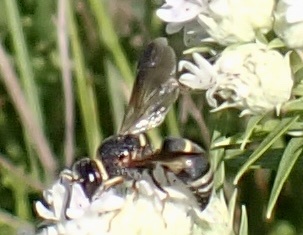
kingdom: Animalia
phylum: Arthropoda
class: Insecta
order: Hymenoptera
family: Eumenidae
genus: Euodynerus
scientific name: Euodynerus hidalgo
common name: Wasp
